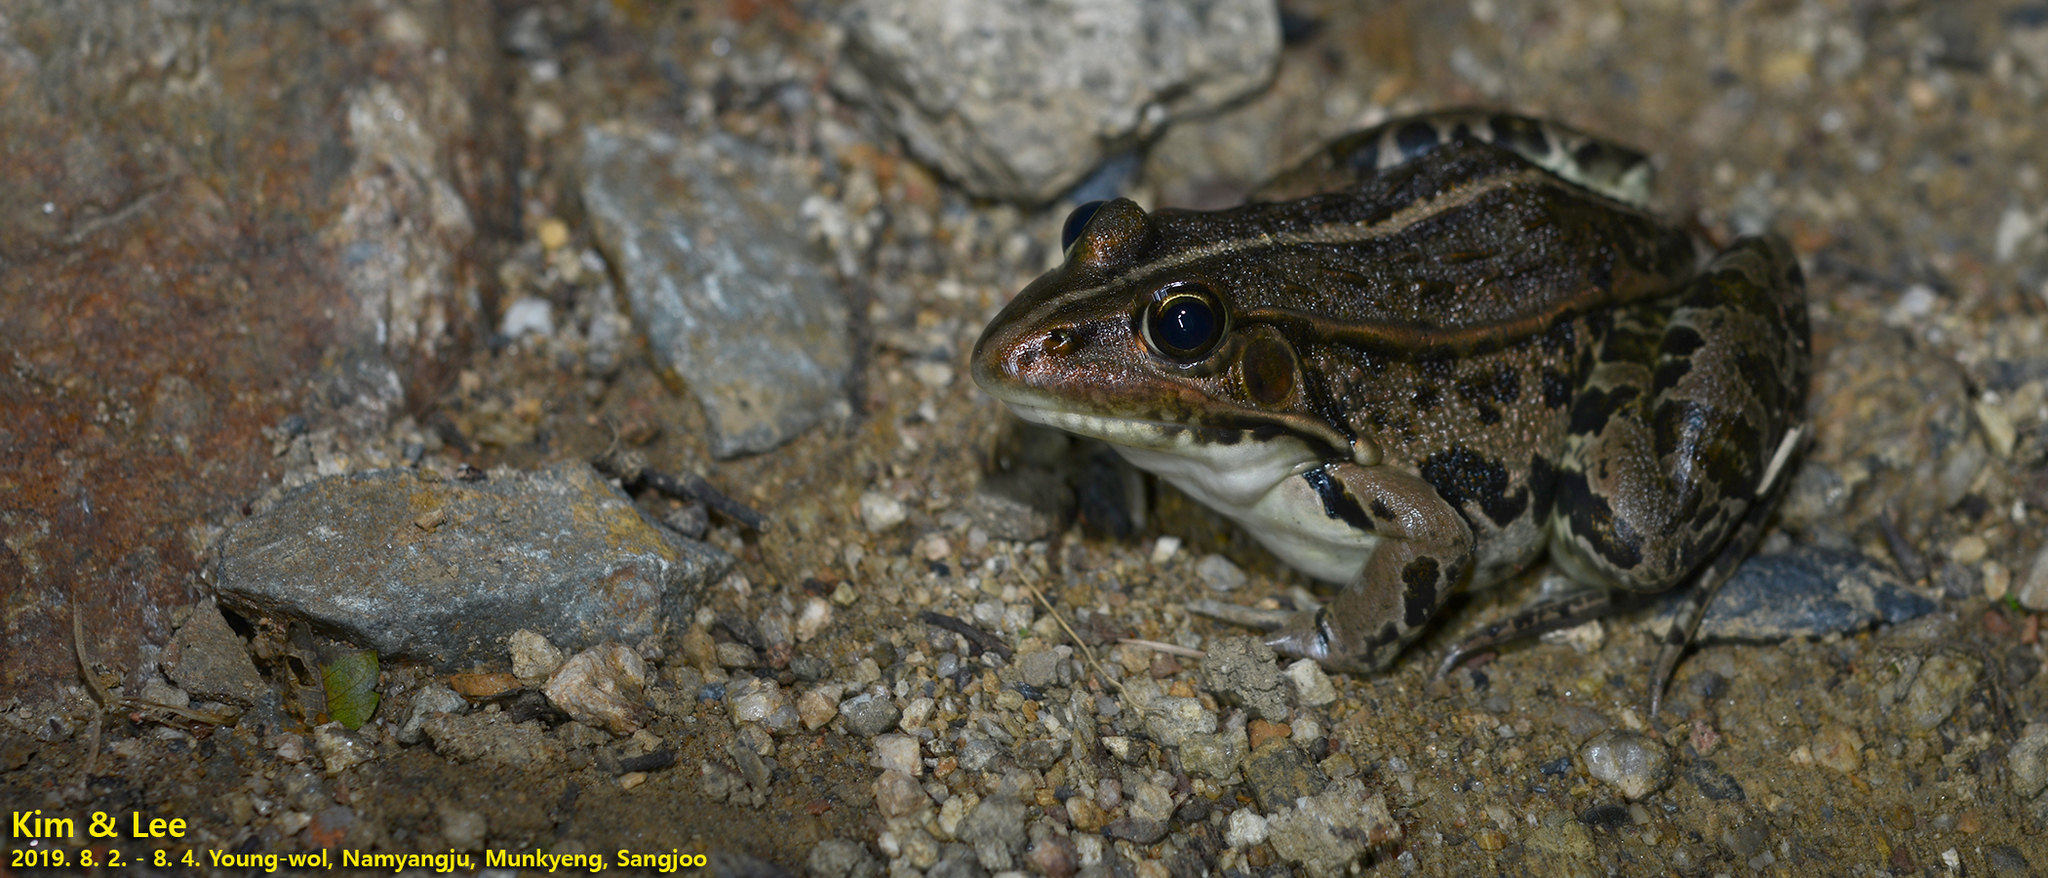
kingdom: Animalia
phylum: Chordata
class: Amphibia
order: Anura
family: Ranidae
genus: Pelophylax
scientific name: Pelophylax nigromaculatus
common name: Black-spotted pond frog
